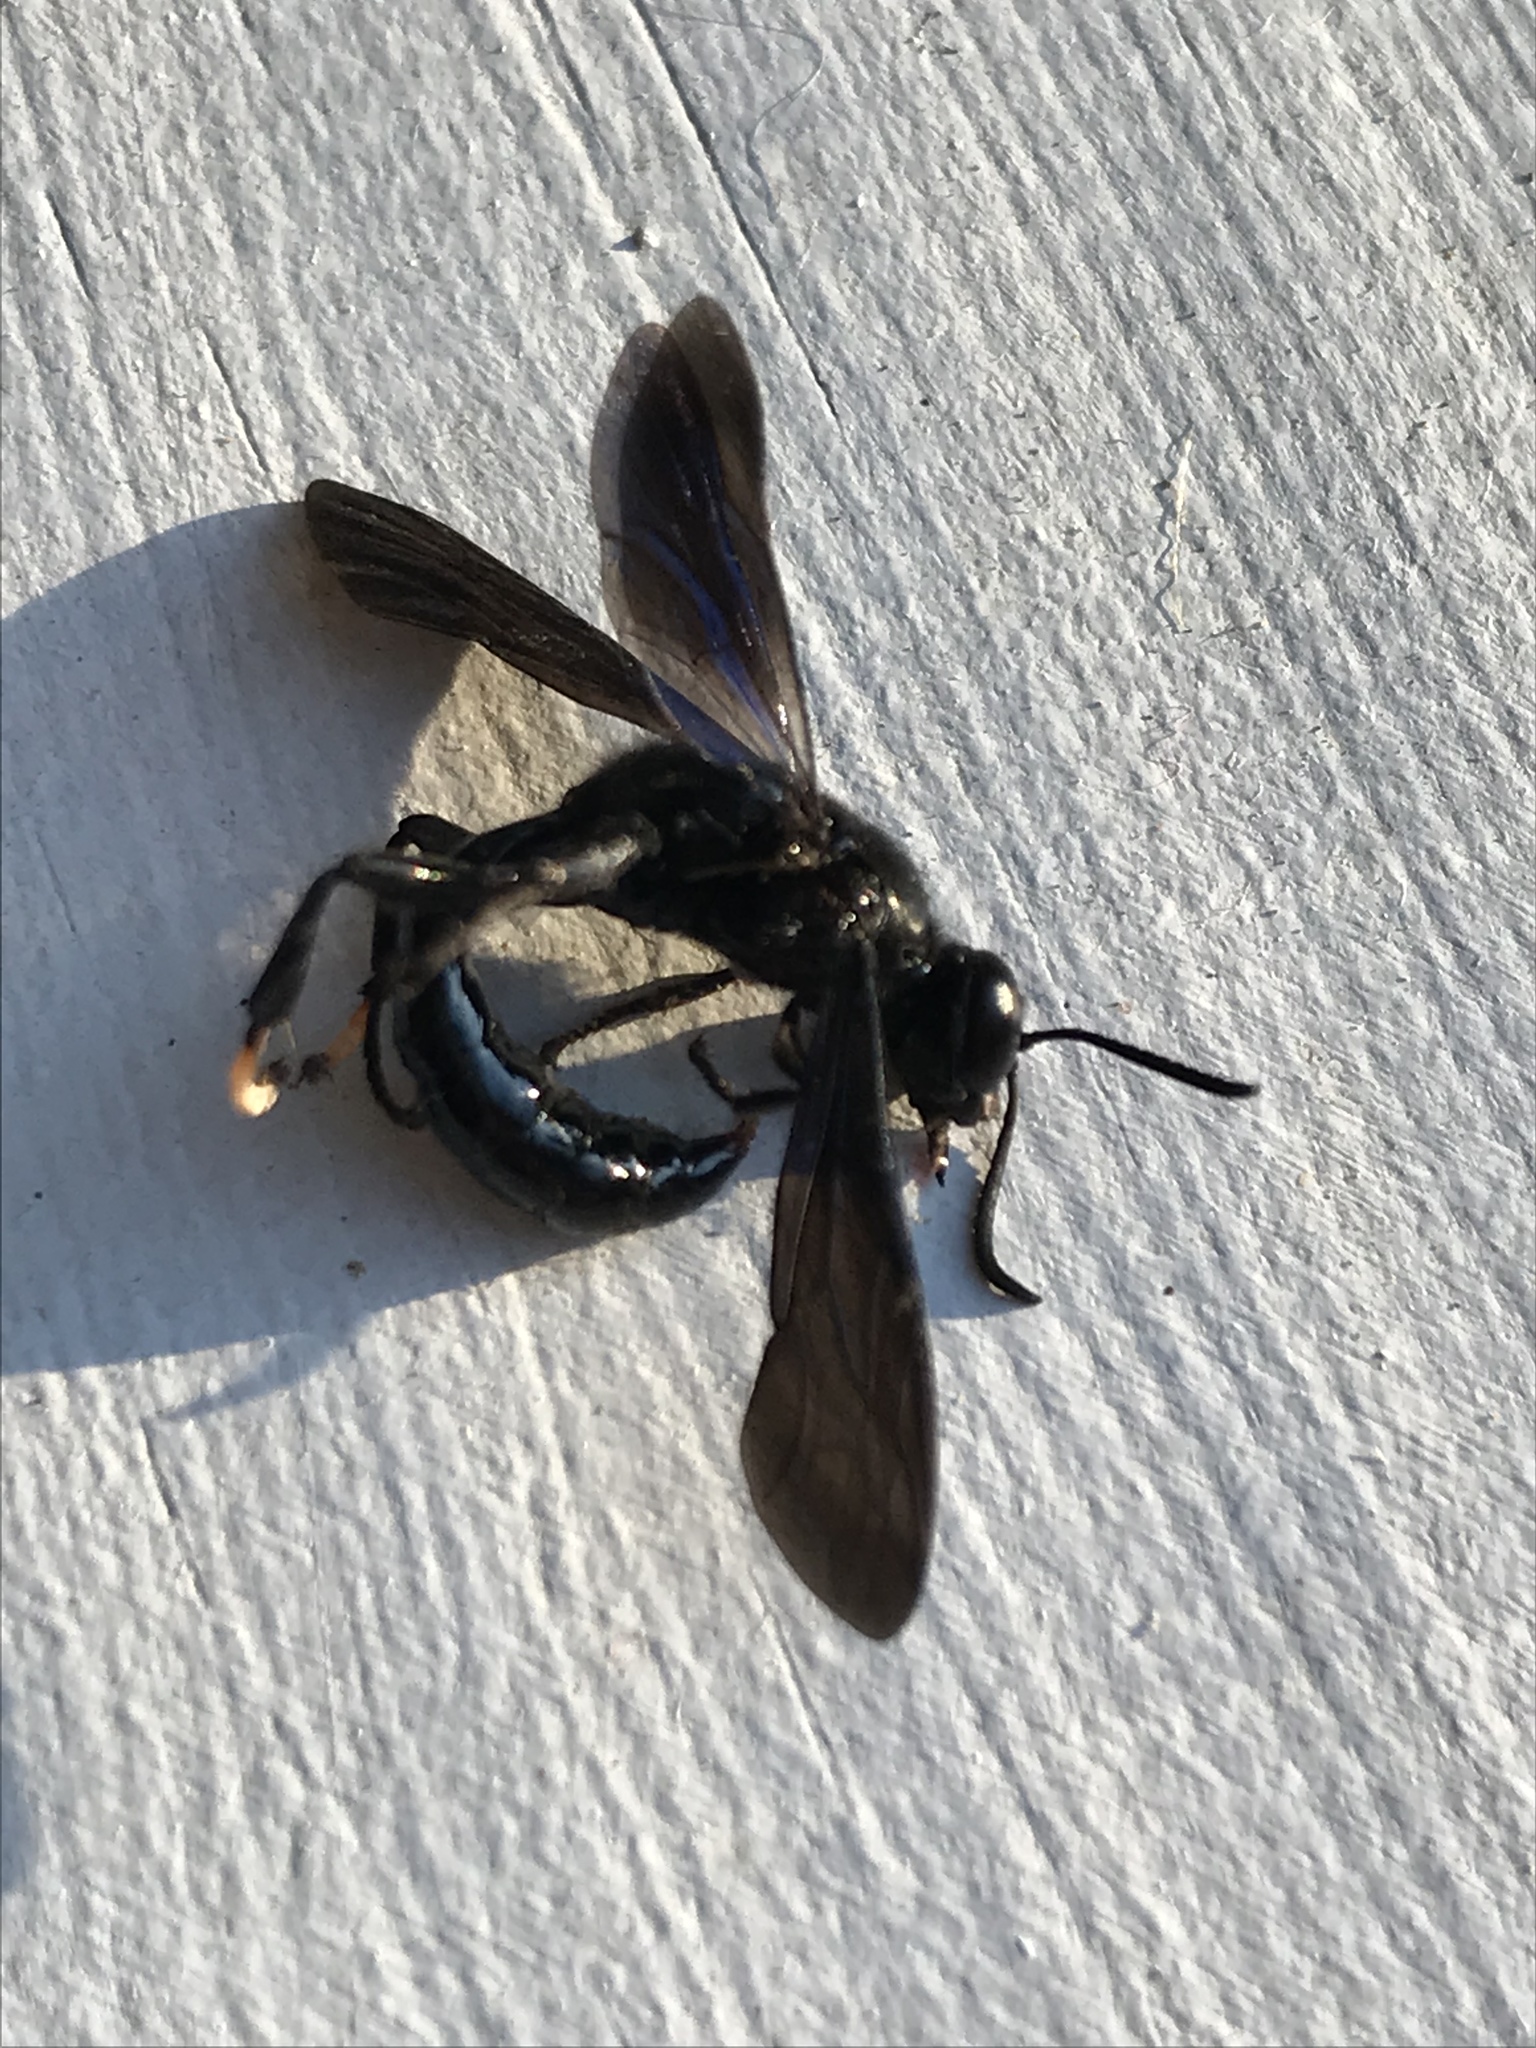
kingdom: Animalia
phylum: Arthropoda
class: Insecta
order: Hymenoptera
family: Crabronidae
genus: Trypoxylon
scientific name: Trypoxylon politum
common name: Organ-pipe mud-dauber wasp
